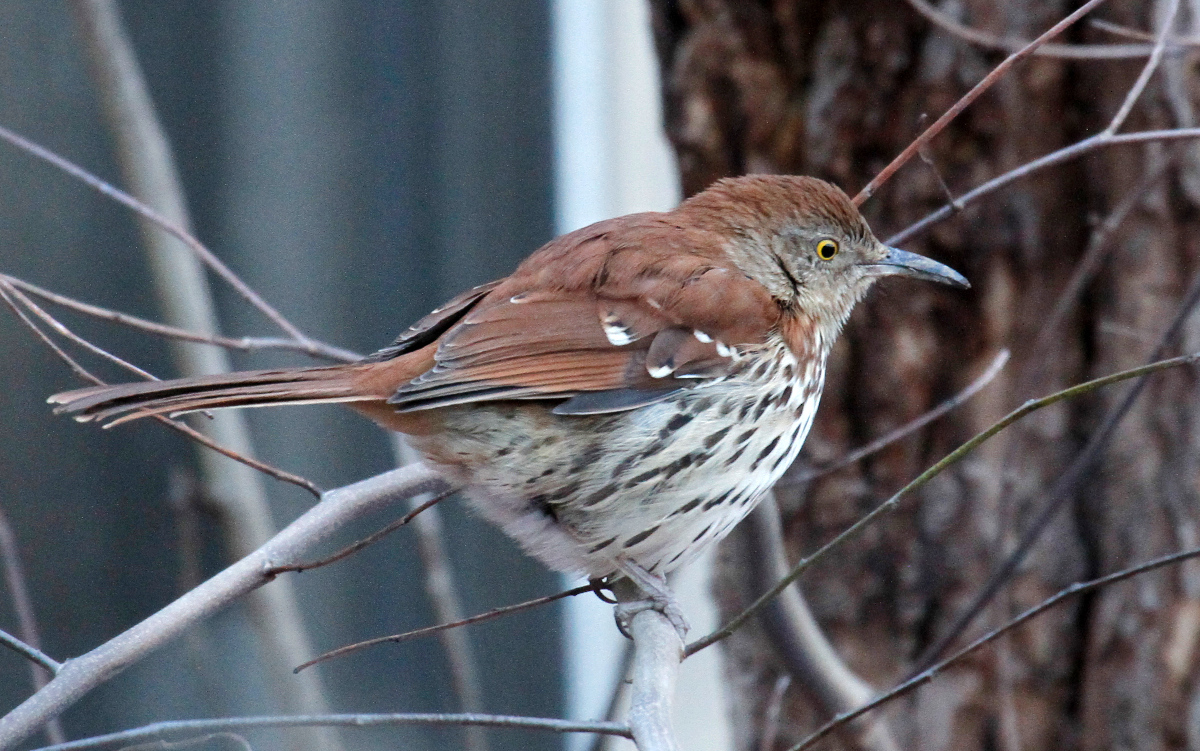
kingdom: Animalia
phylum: Chordata
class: Aves
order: Passeriformes
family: Mimidae
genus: Toxostoma
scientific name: Toxostoma rufum
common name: Brown thrasher
